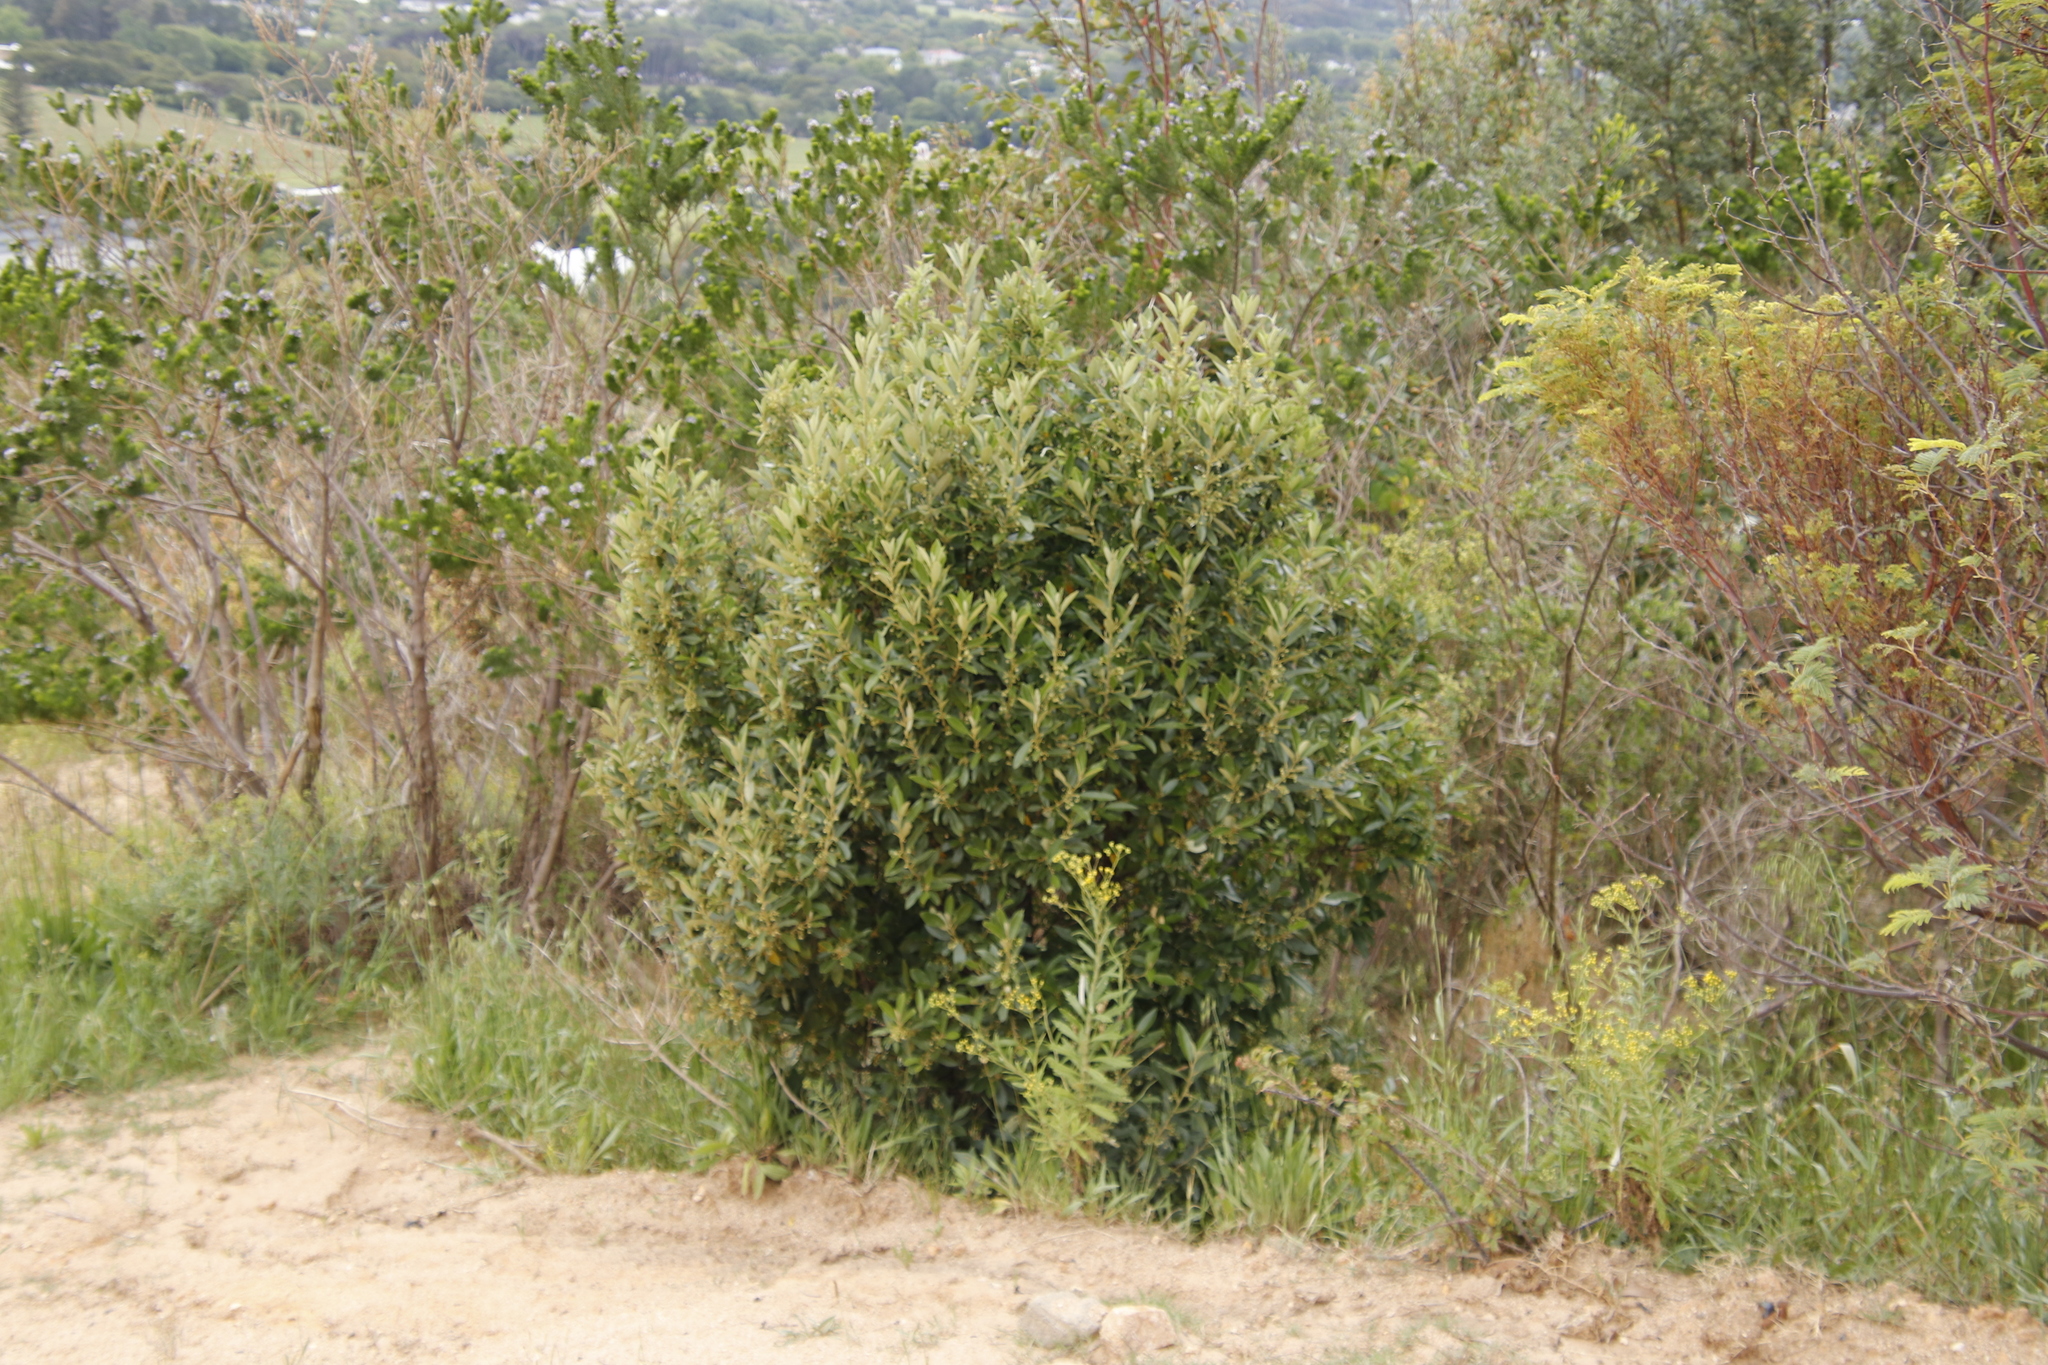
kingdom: Plantae
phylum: Tracheophyta
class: Magnoliopsida
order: Malpighiales
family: Achariaceae
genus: Kiggelaria
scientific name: Kiggelaria africana
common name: Wild peach
